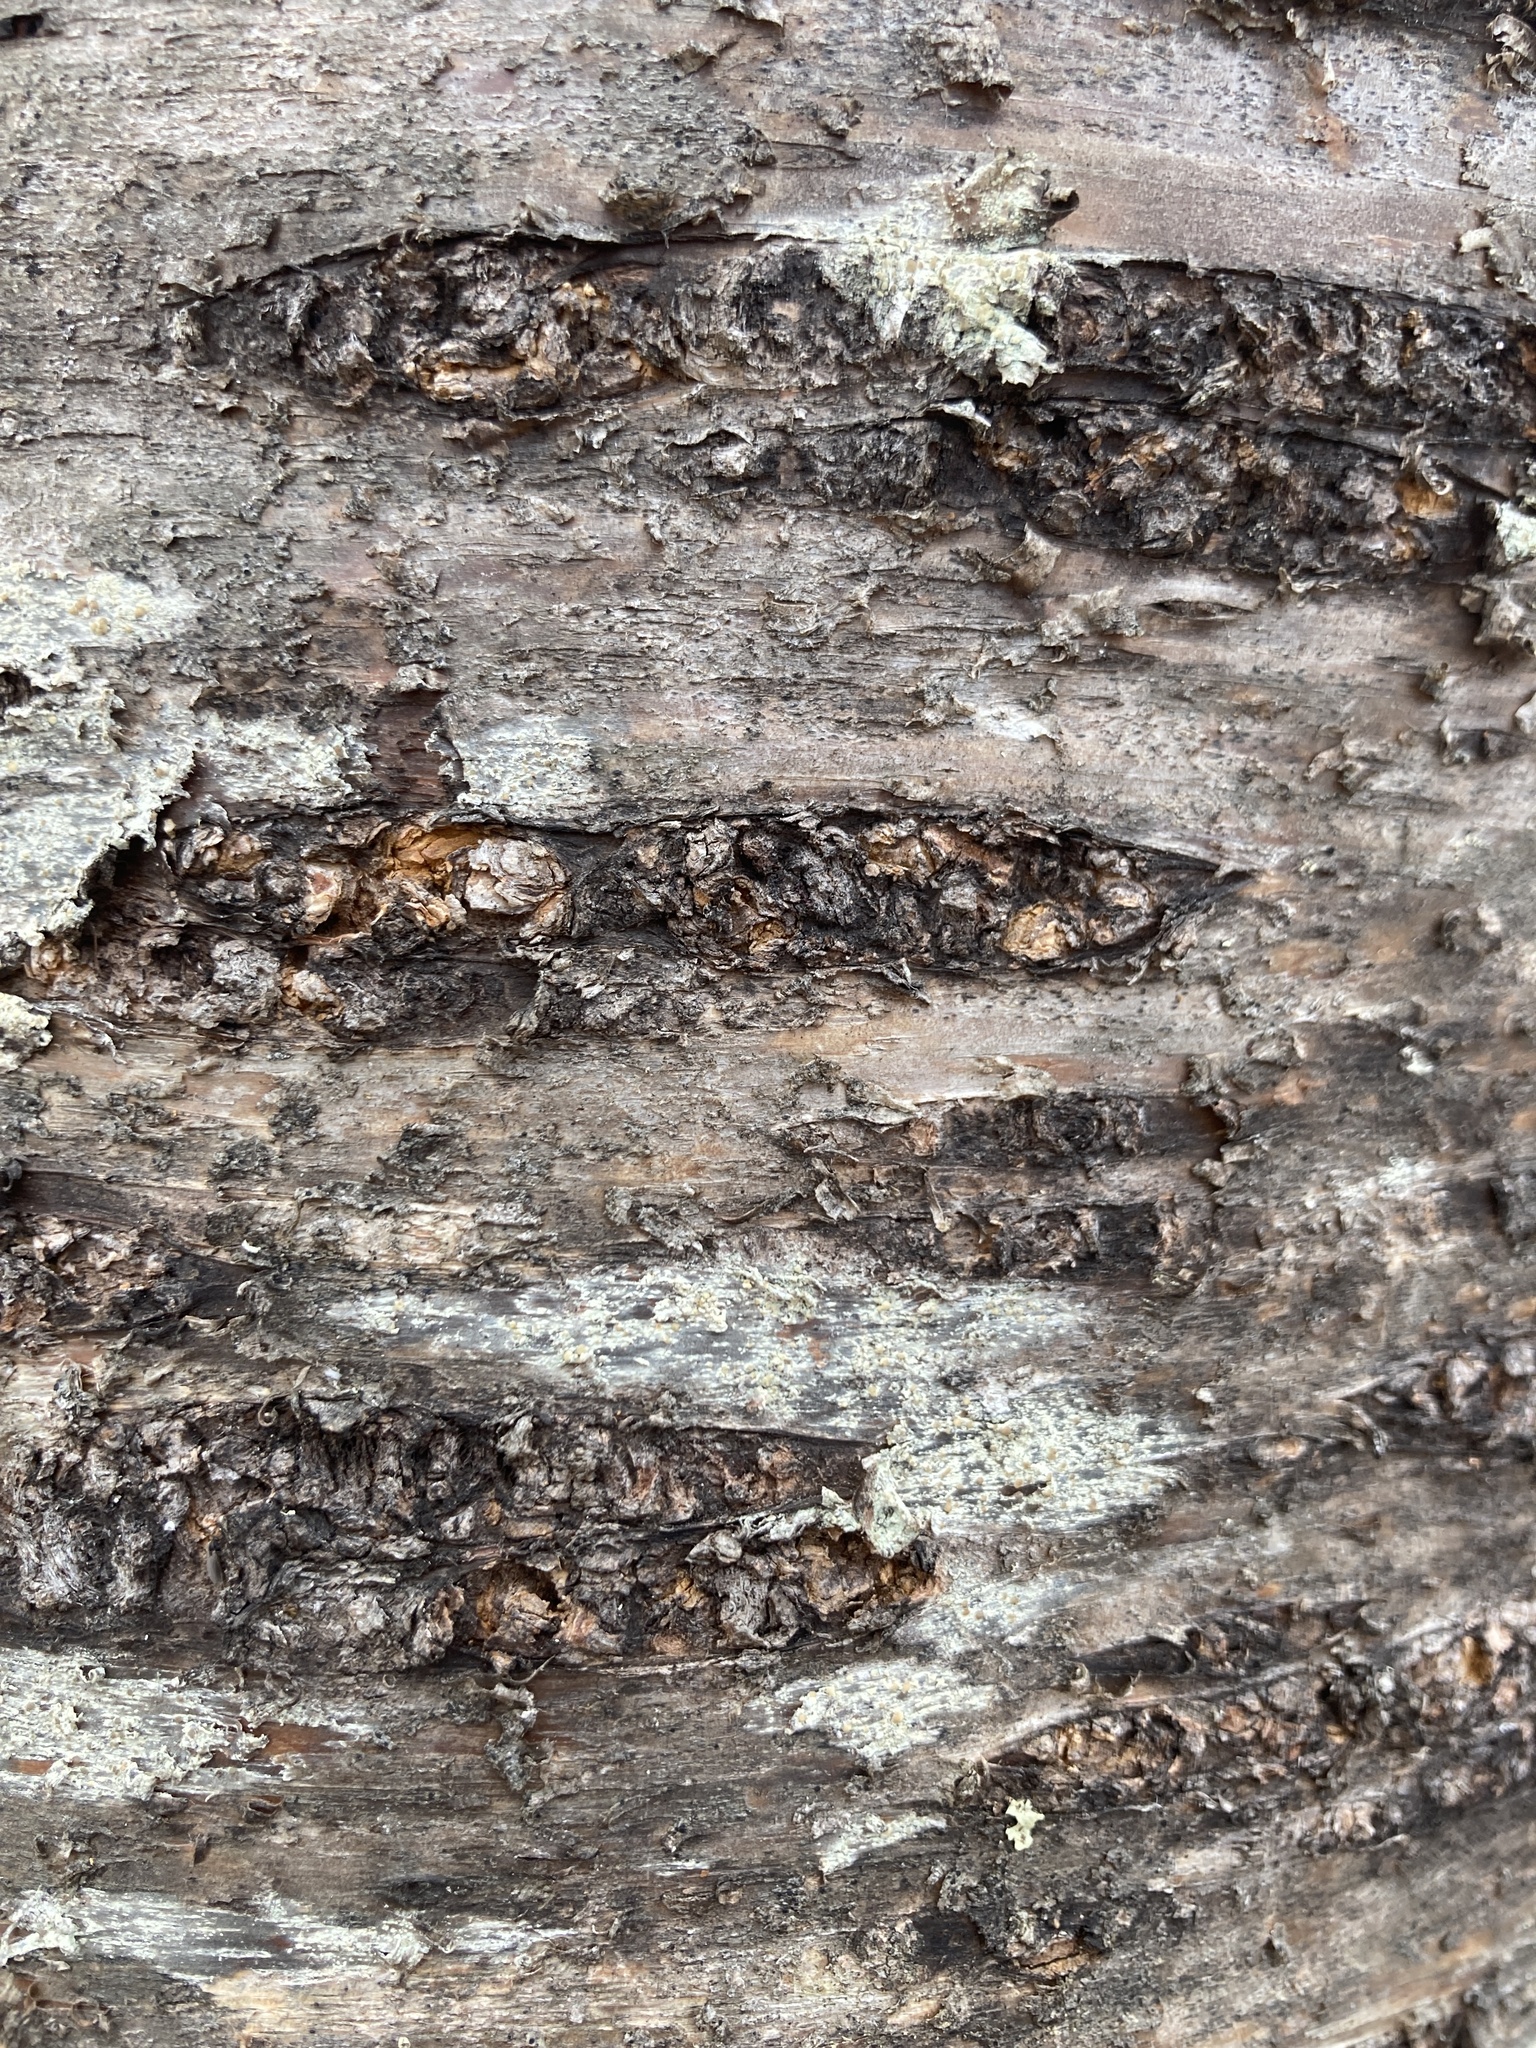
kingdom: Plantae
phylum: Tracheophyta
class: Magnoliopsida
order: Rosales
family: Rosaceae
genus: Prunus
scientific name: Prunus serotina
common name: Black cherry
